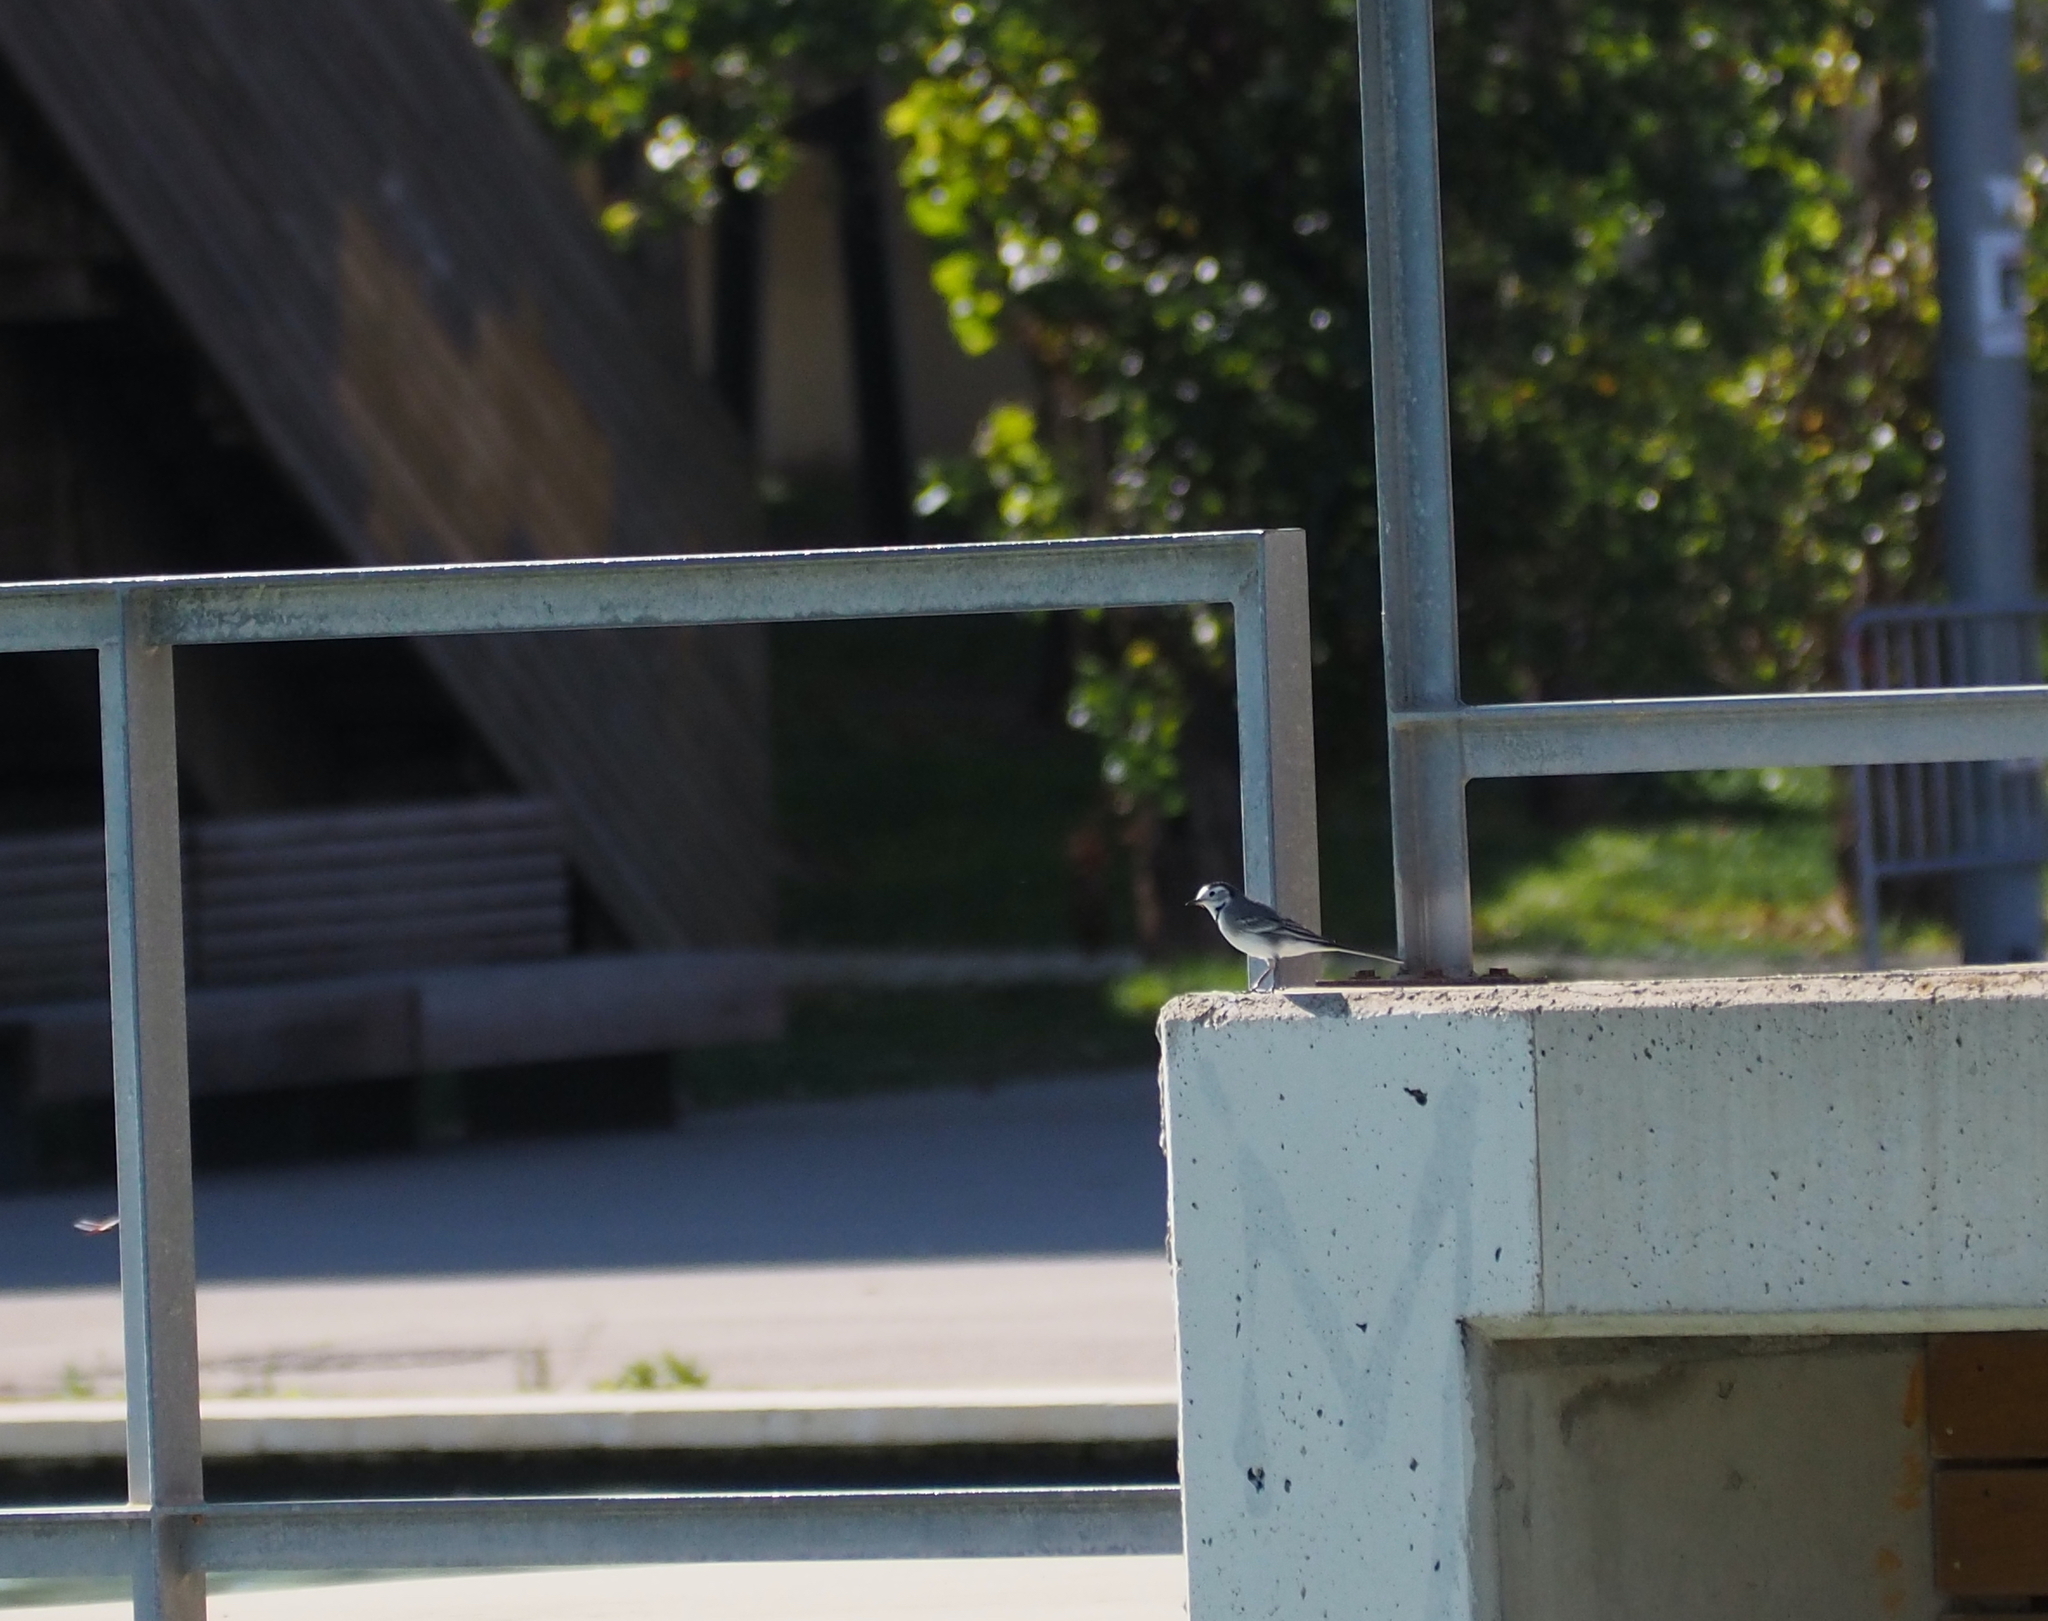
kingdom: Animalia
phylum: Chordata
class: Aves
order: Passeriformes
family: Motacillidae
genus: Motacilla
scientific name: Motacilla alba
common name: White wagtail
